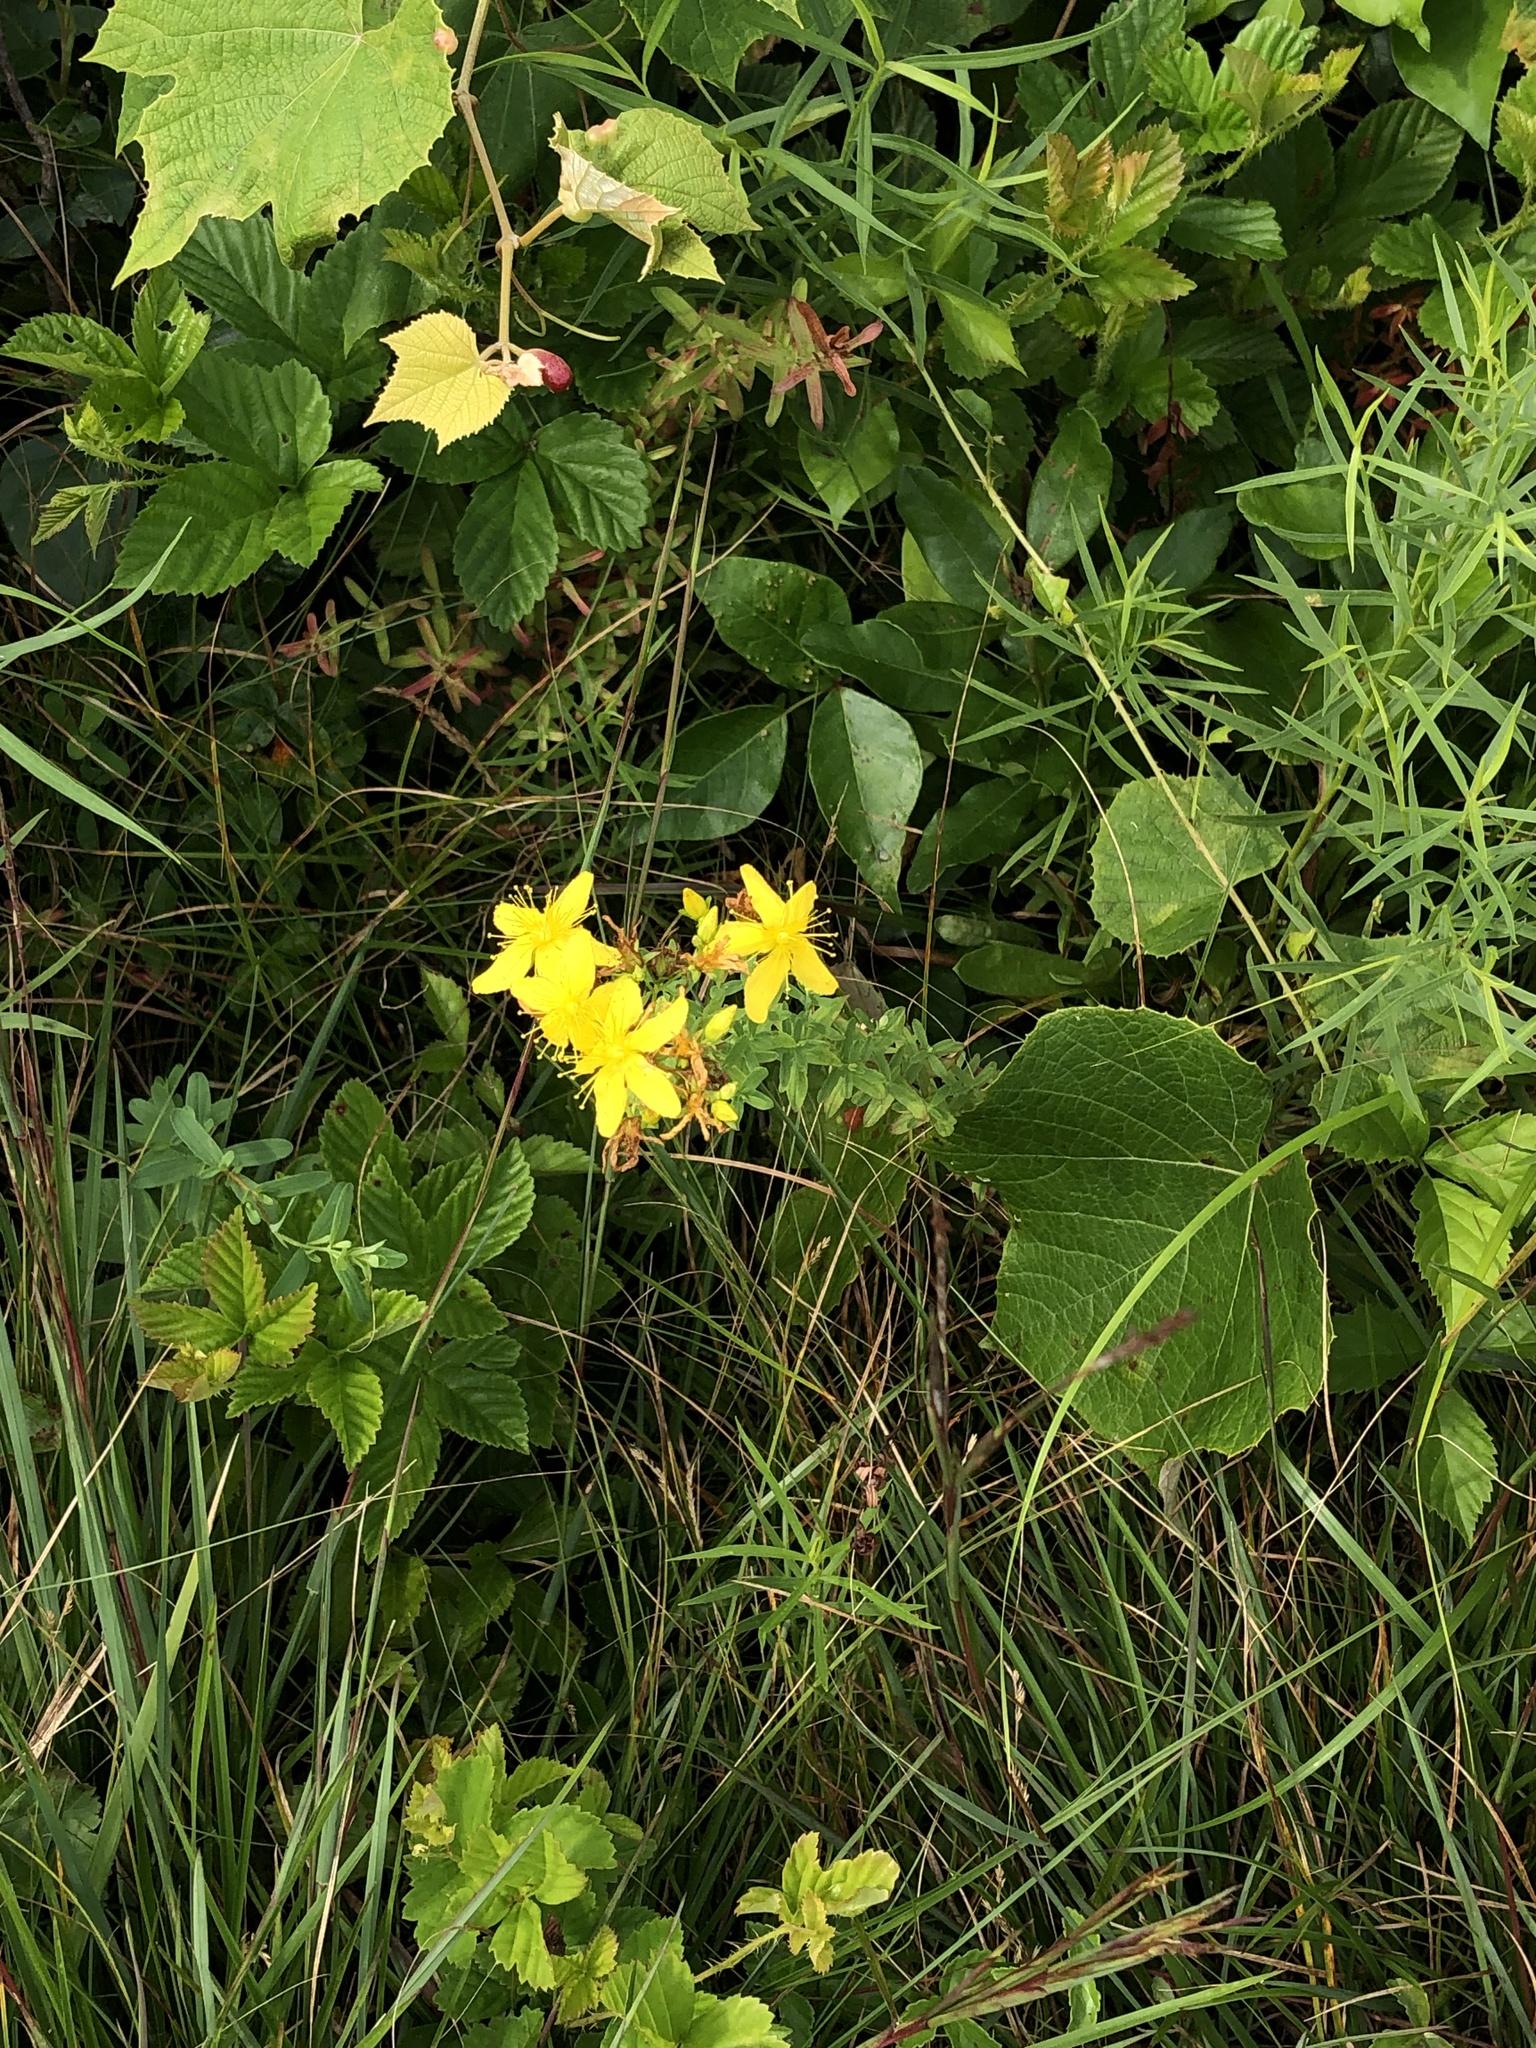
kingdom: Plantae
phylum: Tracheophyta
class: Magnoliopsida
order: Malpighiales
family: Hypericaceae
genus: Hypericum
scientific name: Hypericum perforatum
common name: Common st. johnswort
